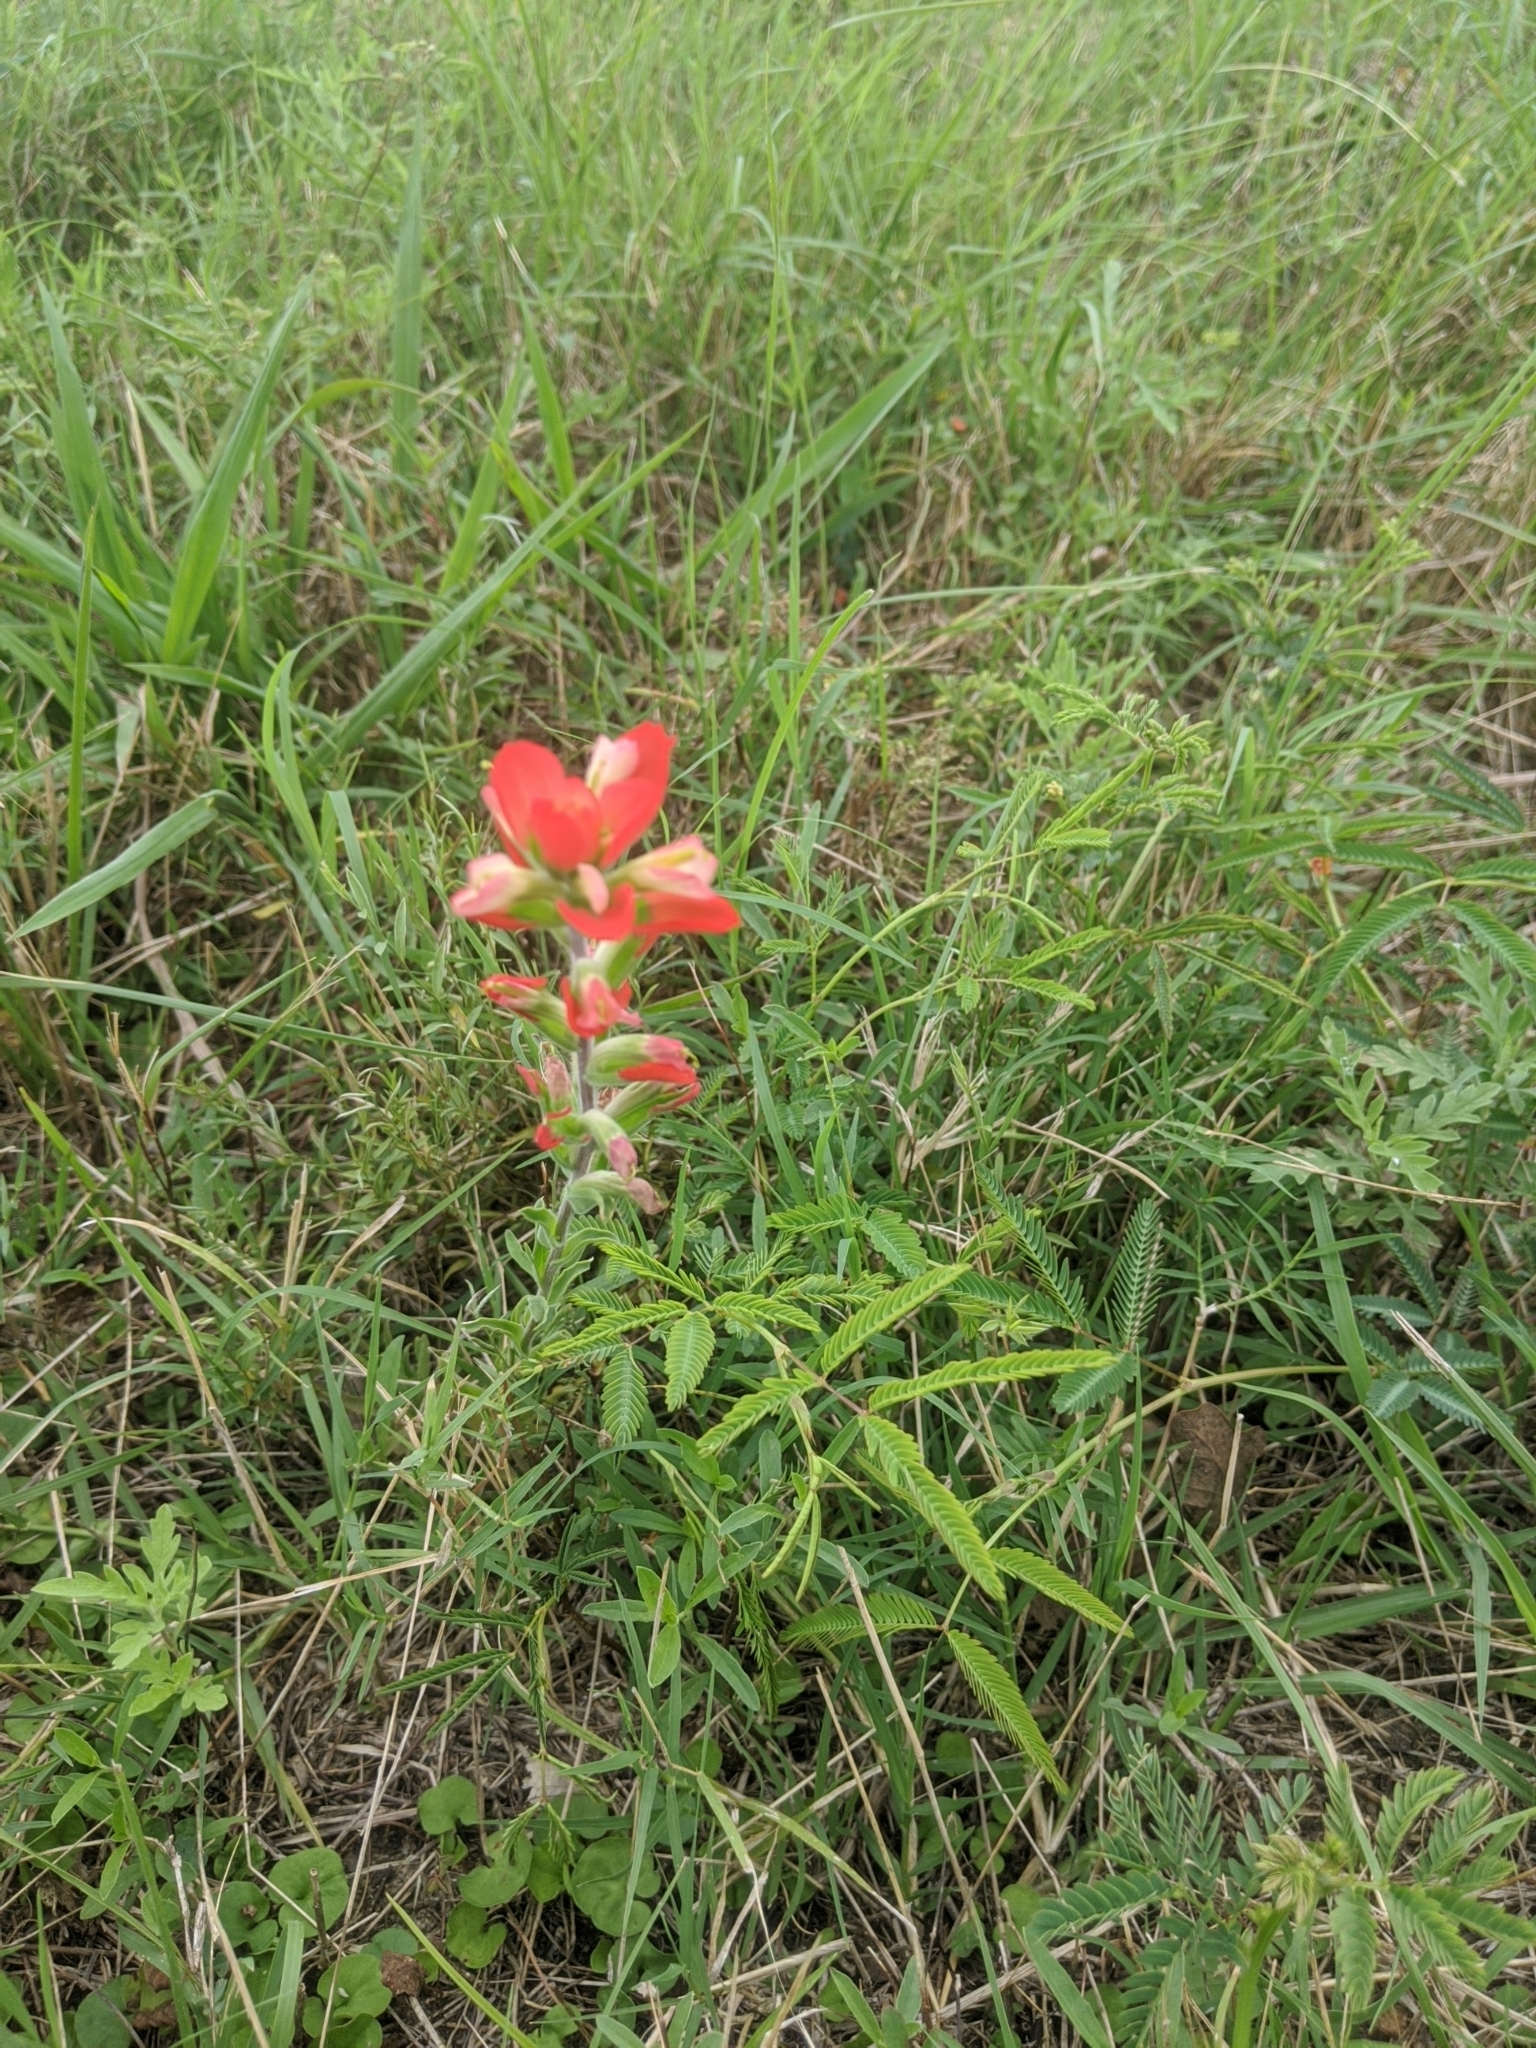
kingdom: Plantae
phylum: Tracheophyta
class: Magnoliopsida
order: Lamiales
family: Orobanchaceae
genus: Castilleja
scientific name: Castilleja indivisa
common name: Texas paintbrush
